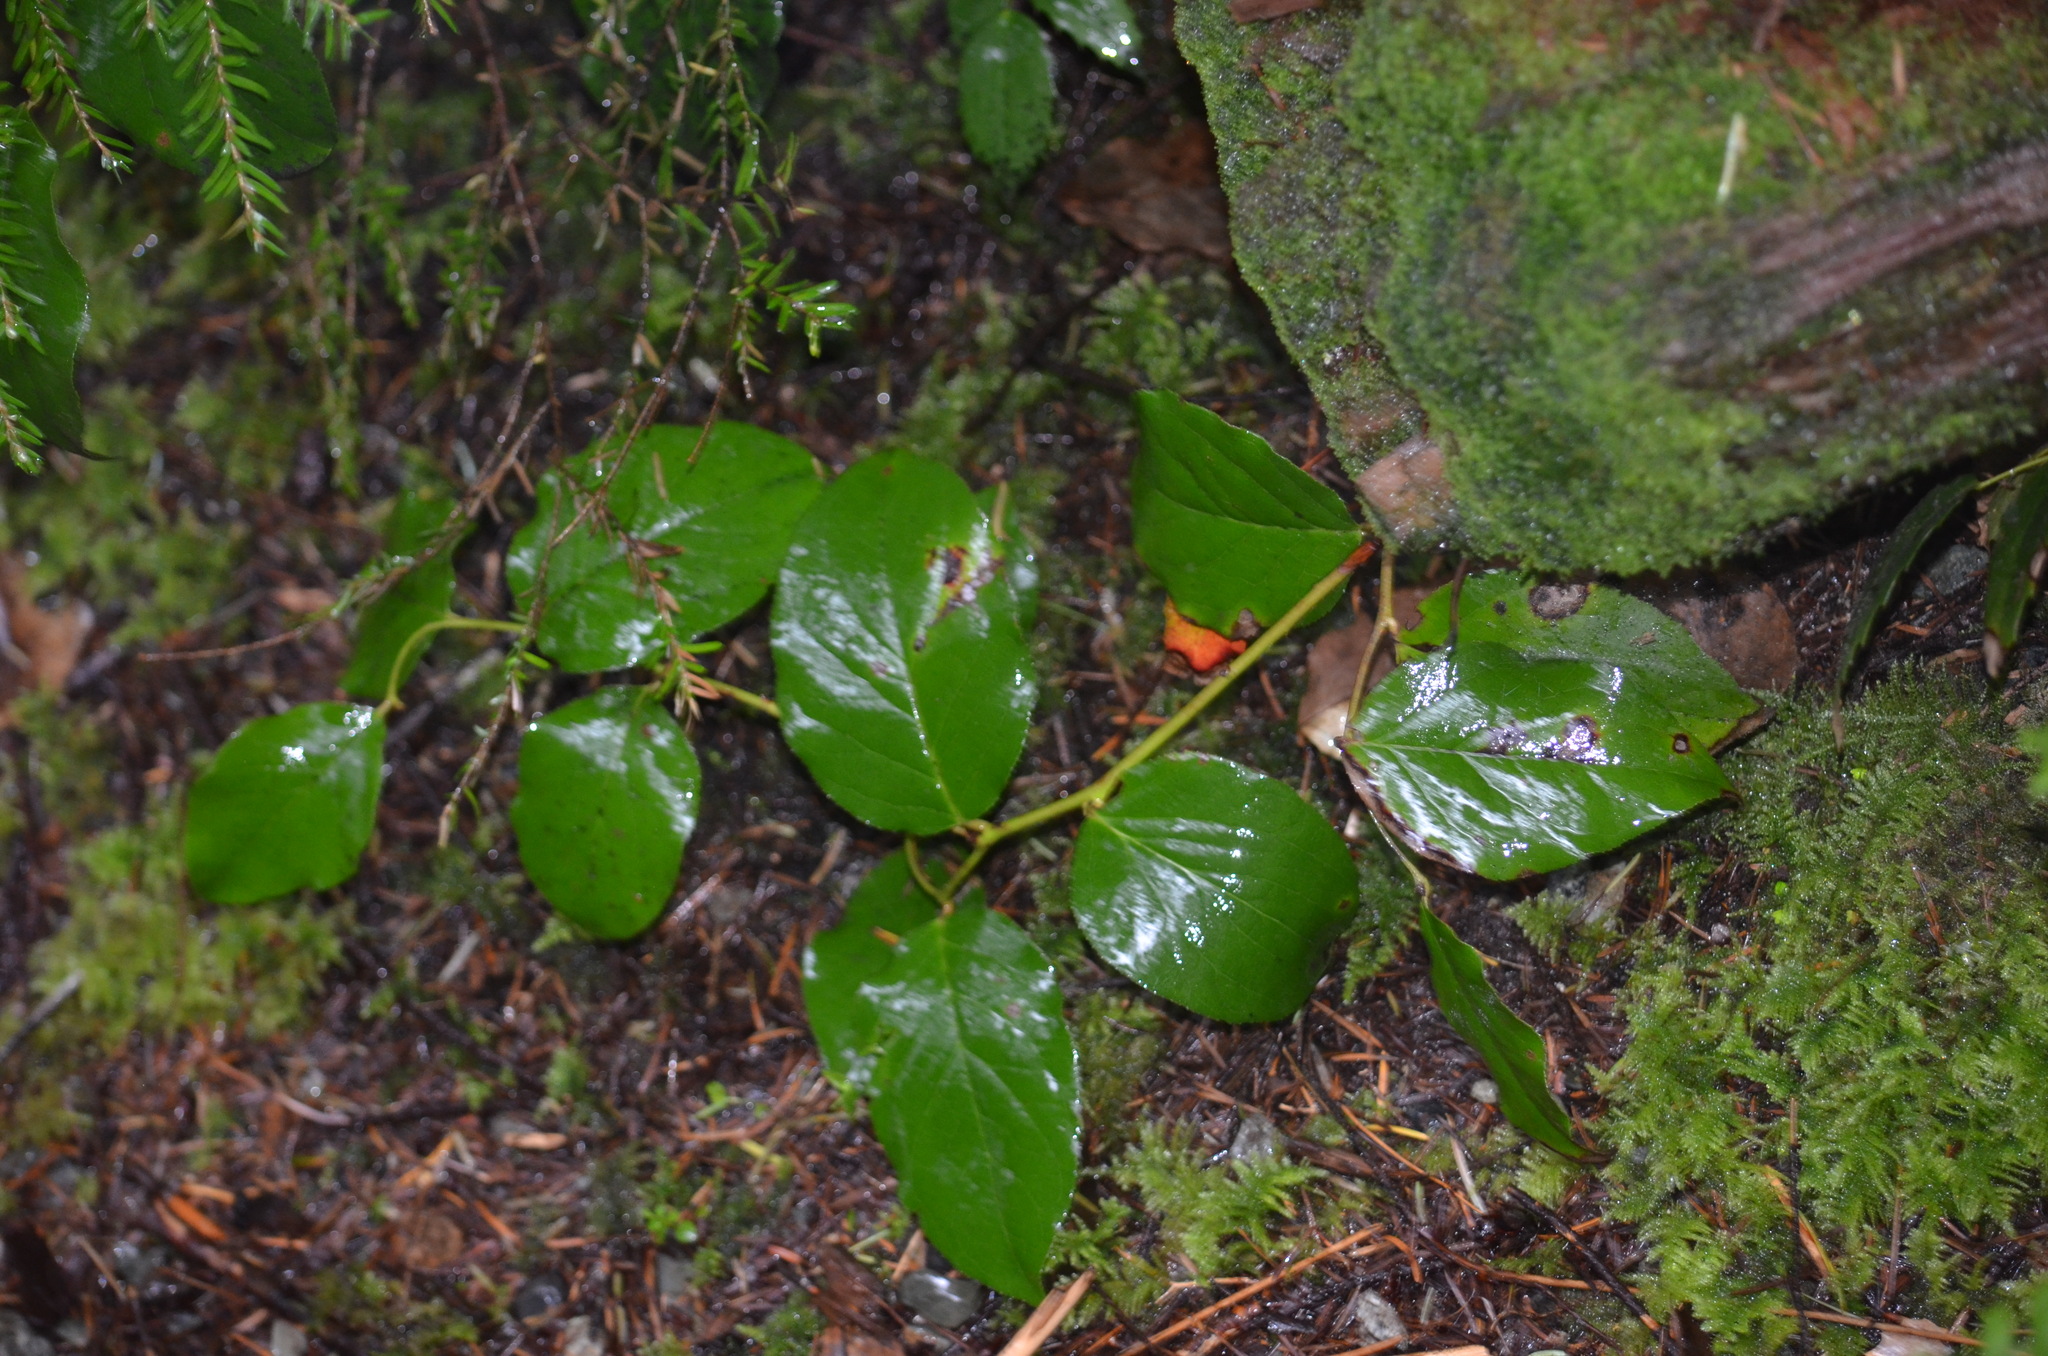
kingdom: Plantae
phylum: Tracheophyta
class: Magnoliopsida
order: Ericales
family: Ericaceae
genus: Gaultheria
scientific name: Gaultheria shallon
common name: Shallon
